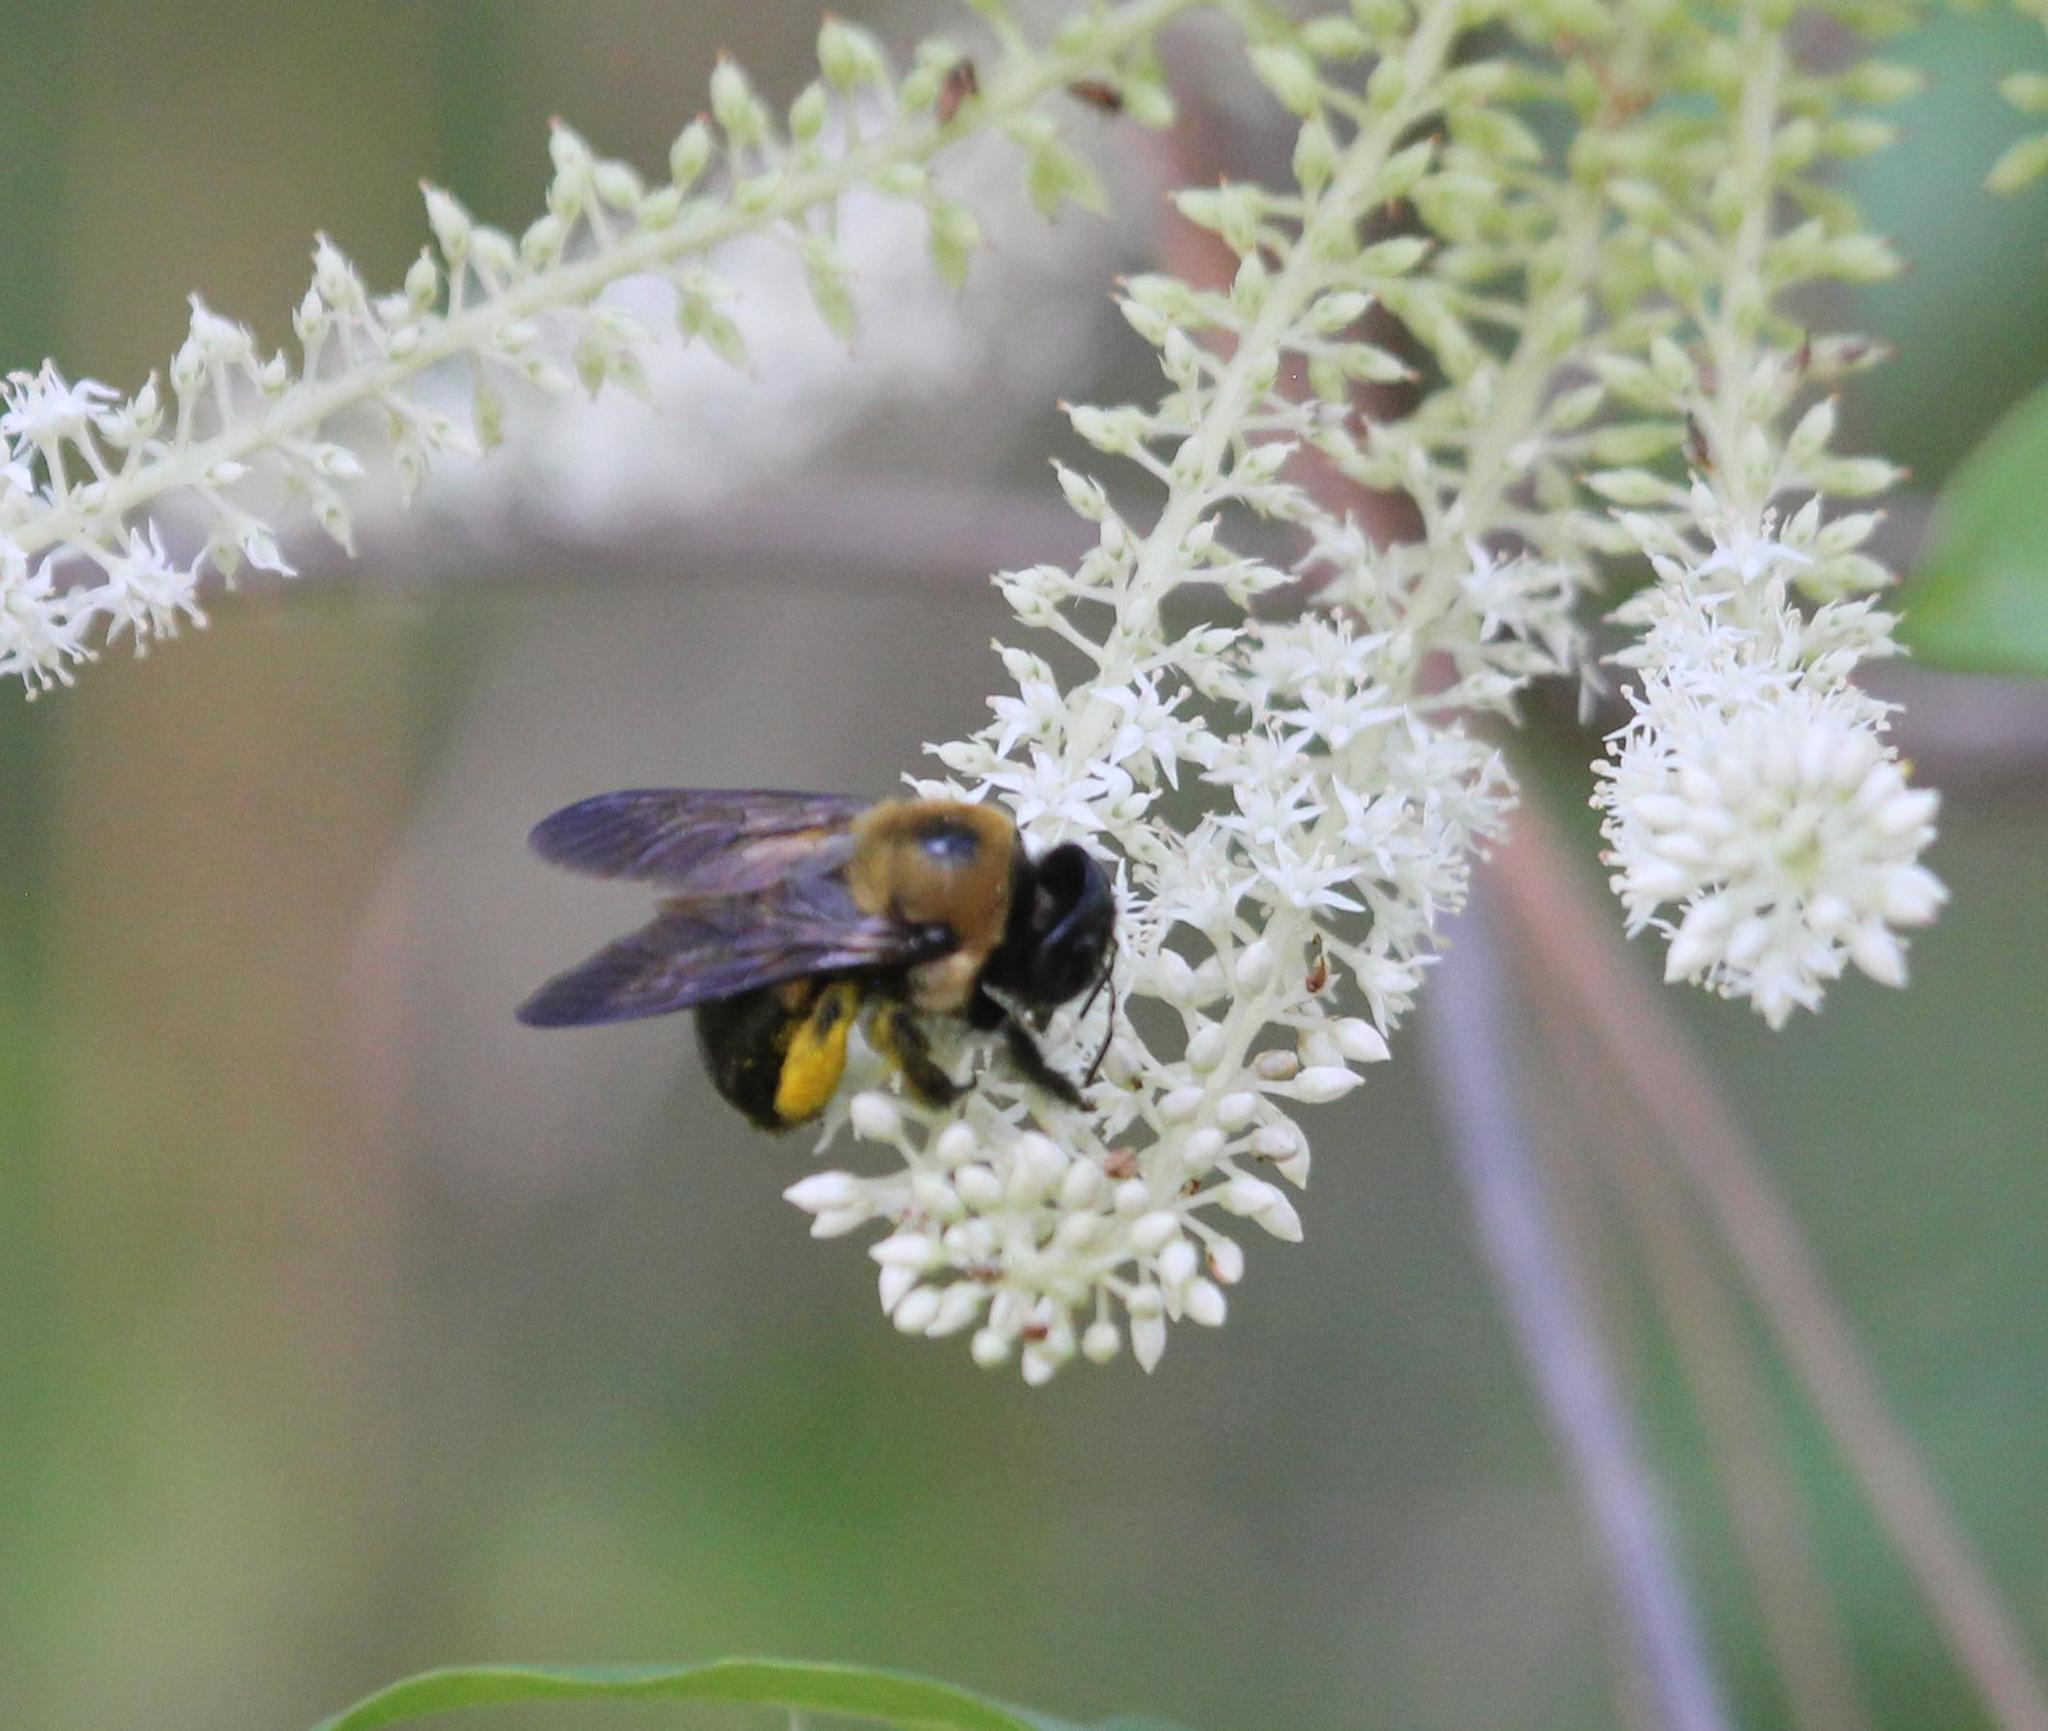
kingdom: Animalia
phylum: Arthropoda
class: Insecta
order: Hymenoptera
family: Apidae
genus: Xylocopa
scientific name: Xylocopa virginica
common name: Carpenter bee
